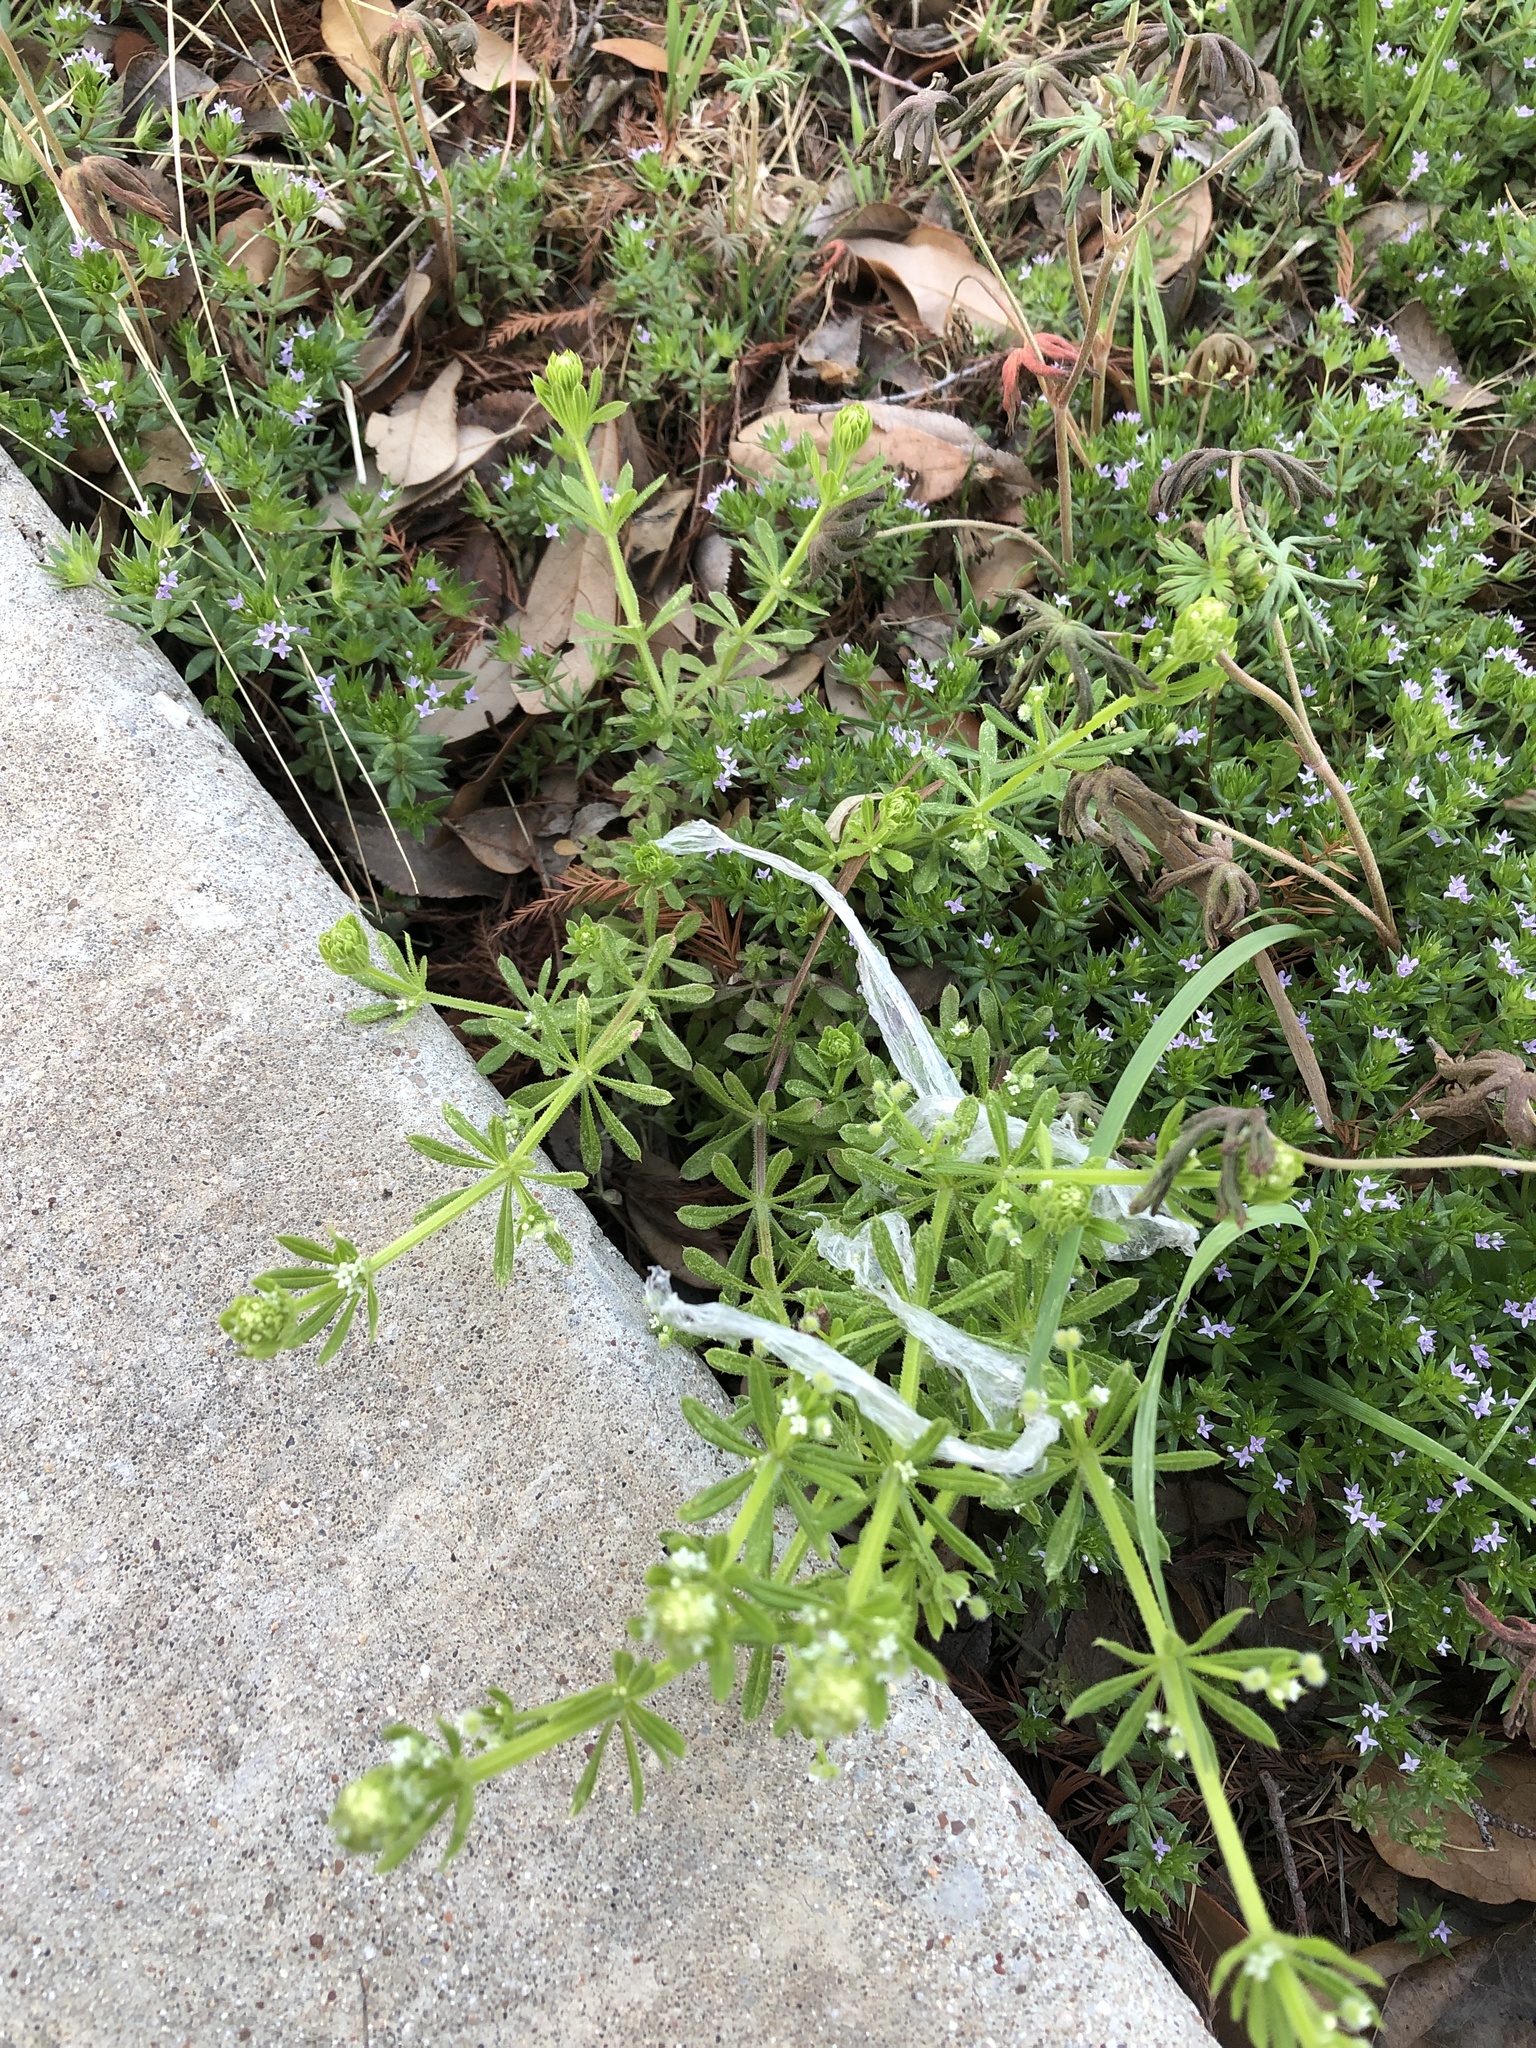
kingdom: Plantae
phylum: Tracheophyta
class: Magnoliopsida
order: Gentianales
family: Rubiaceae
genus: Galium
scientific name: Galium aparine
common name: Cleavers
